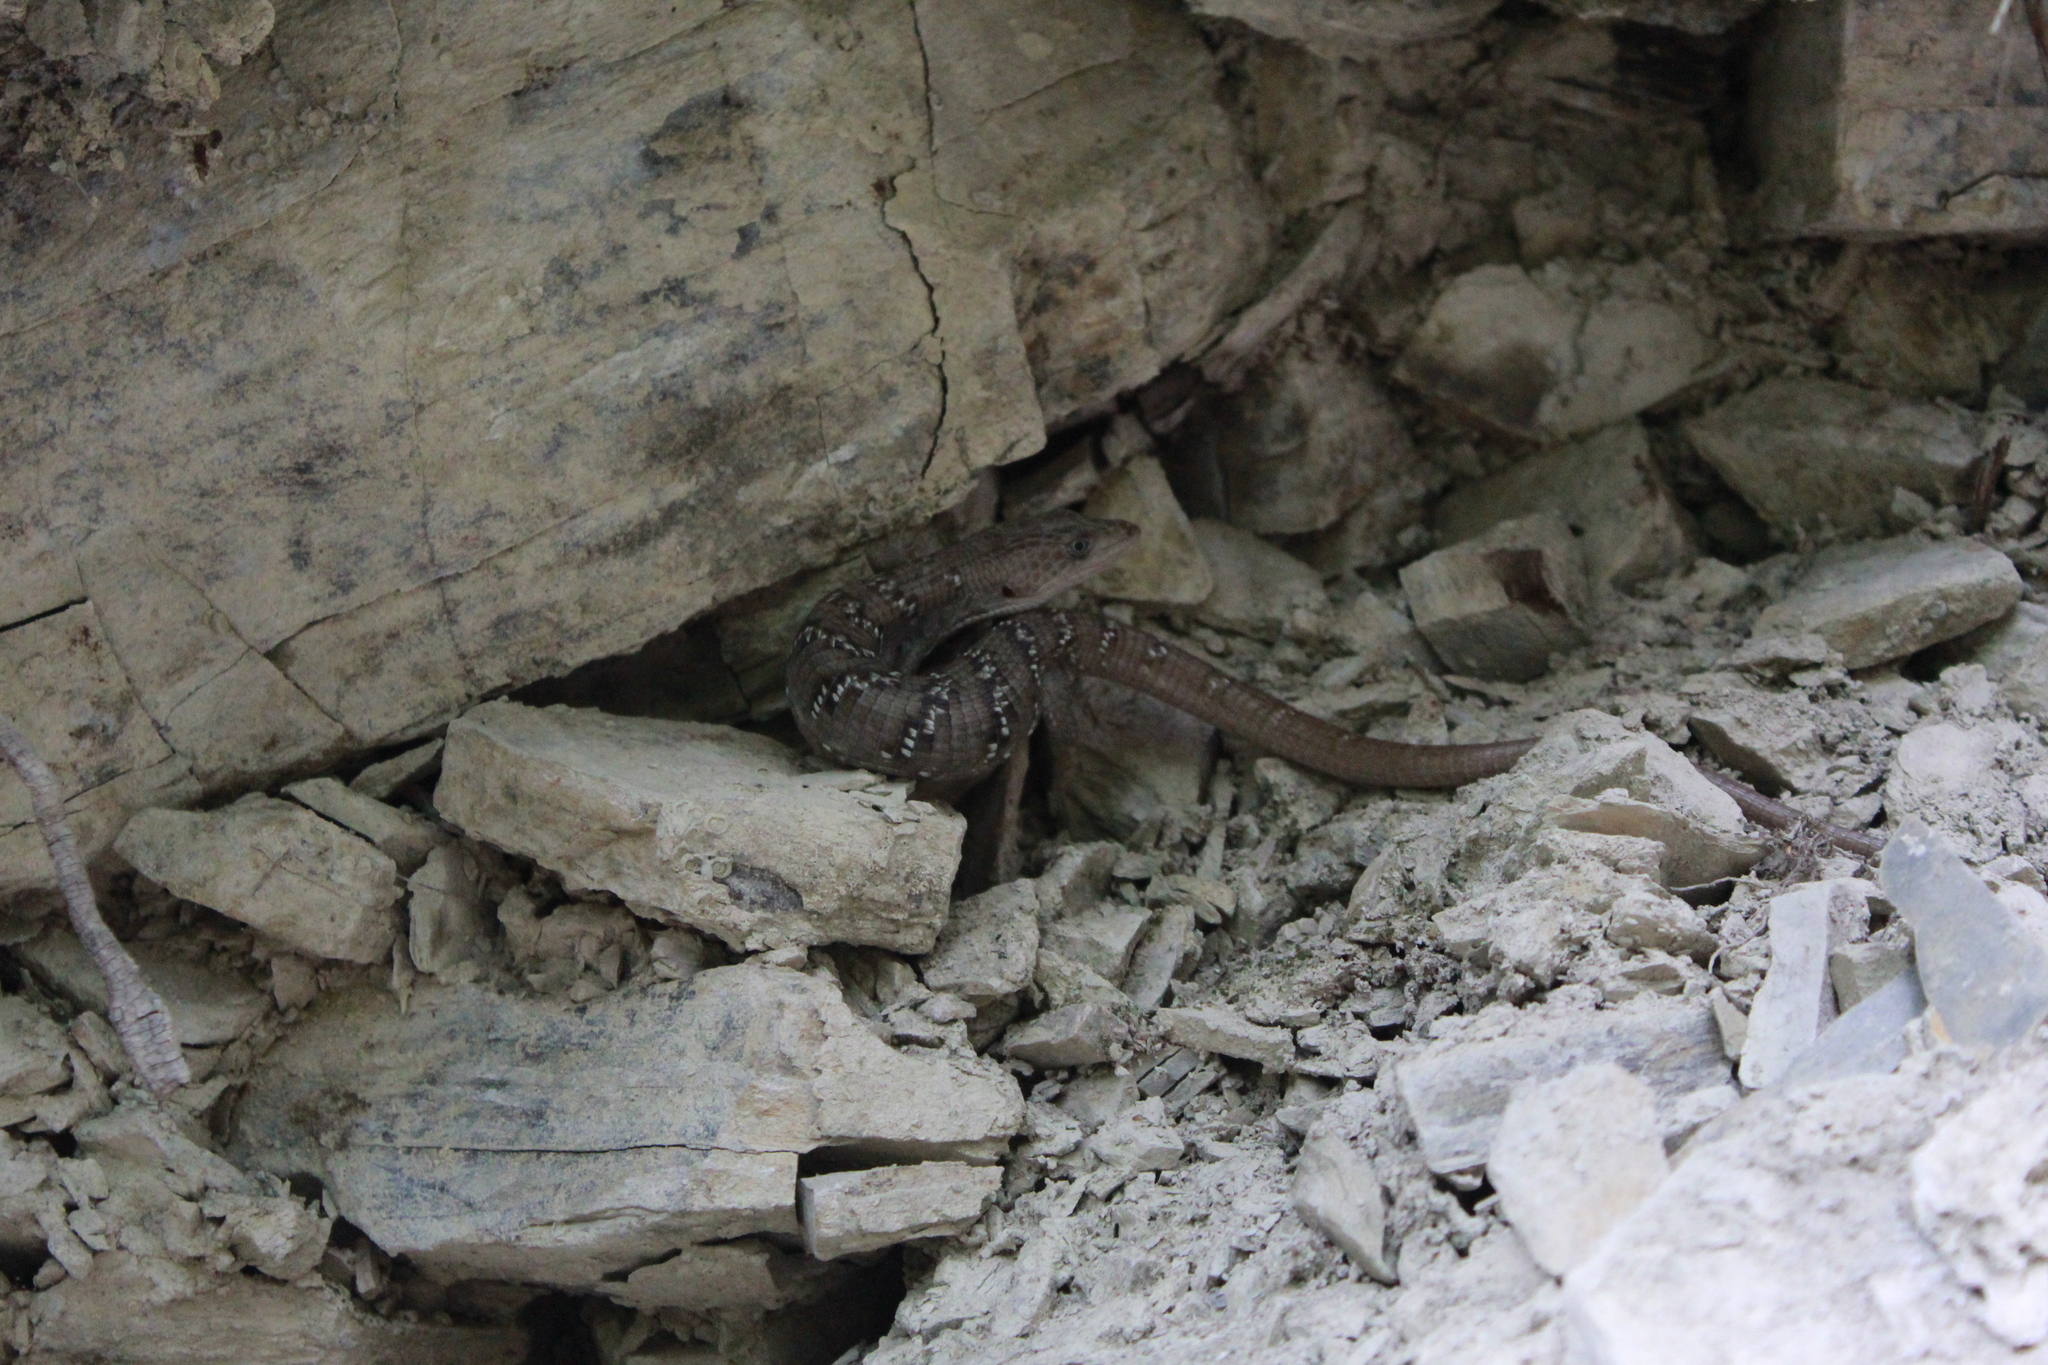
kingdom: Animalia
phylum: Chordata
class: Squamata
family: Anguidae
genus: Gerrhonotus
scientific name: Gerrhonotus infernalis
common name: Texas alligator lizard
